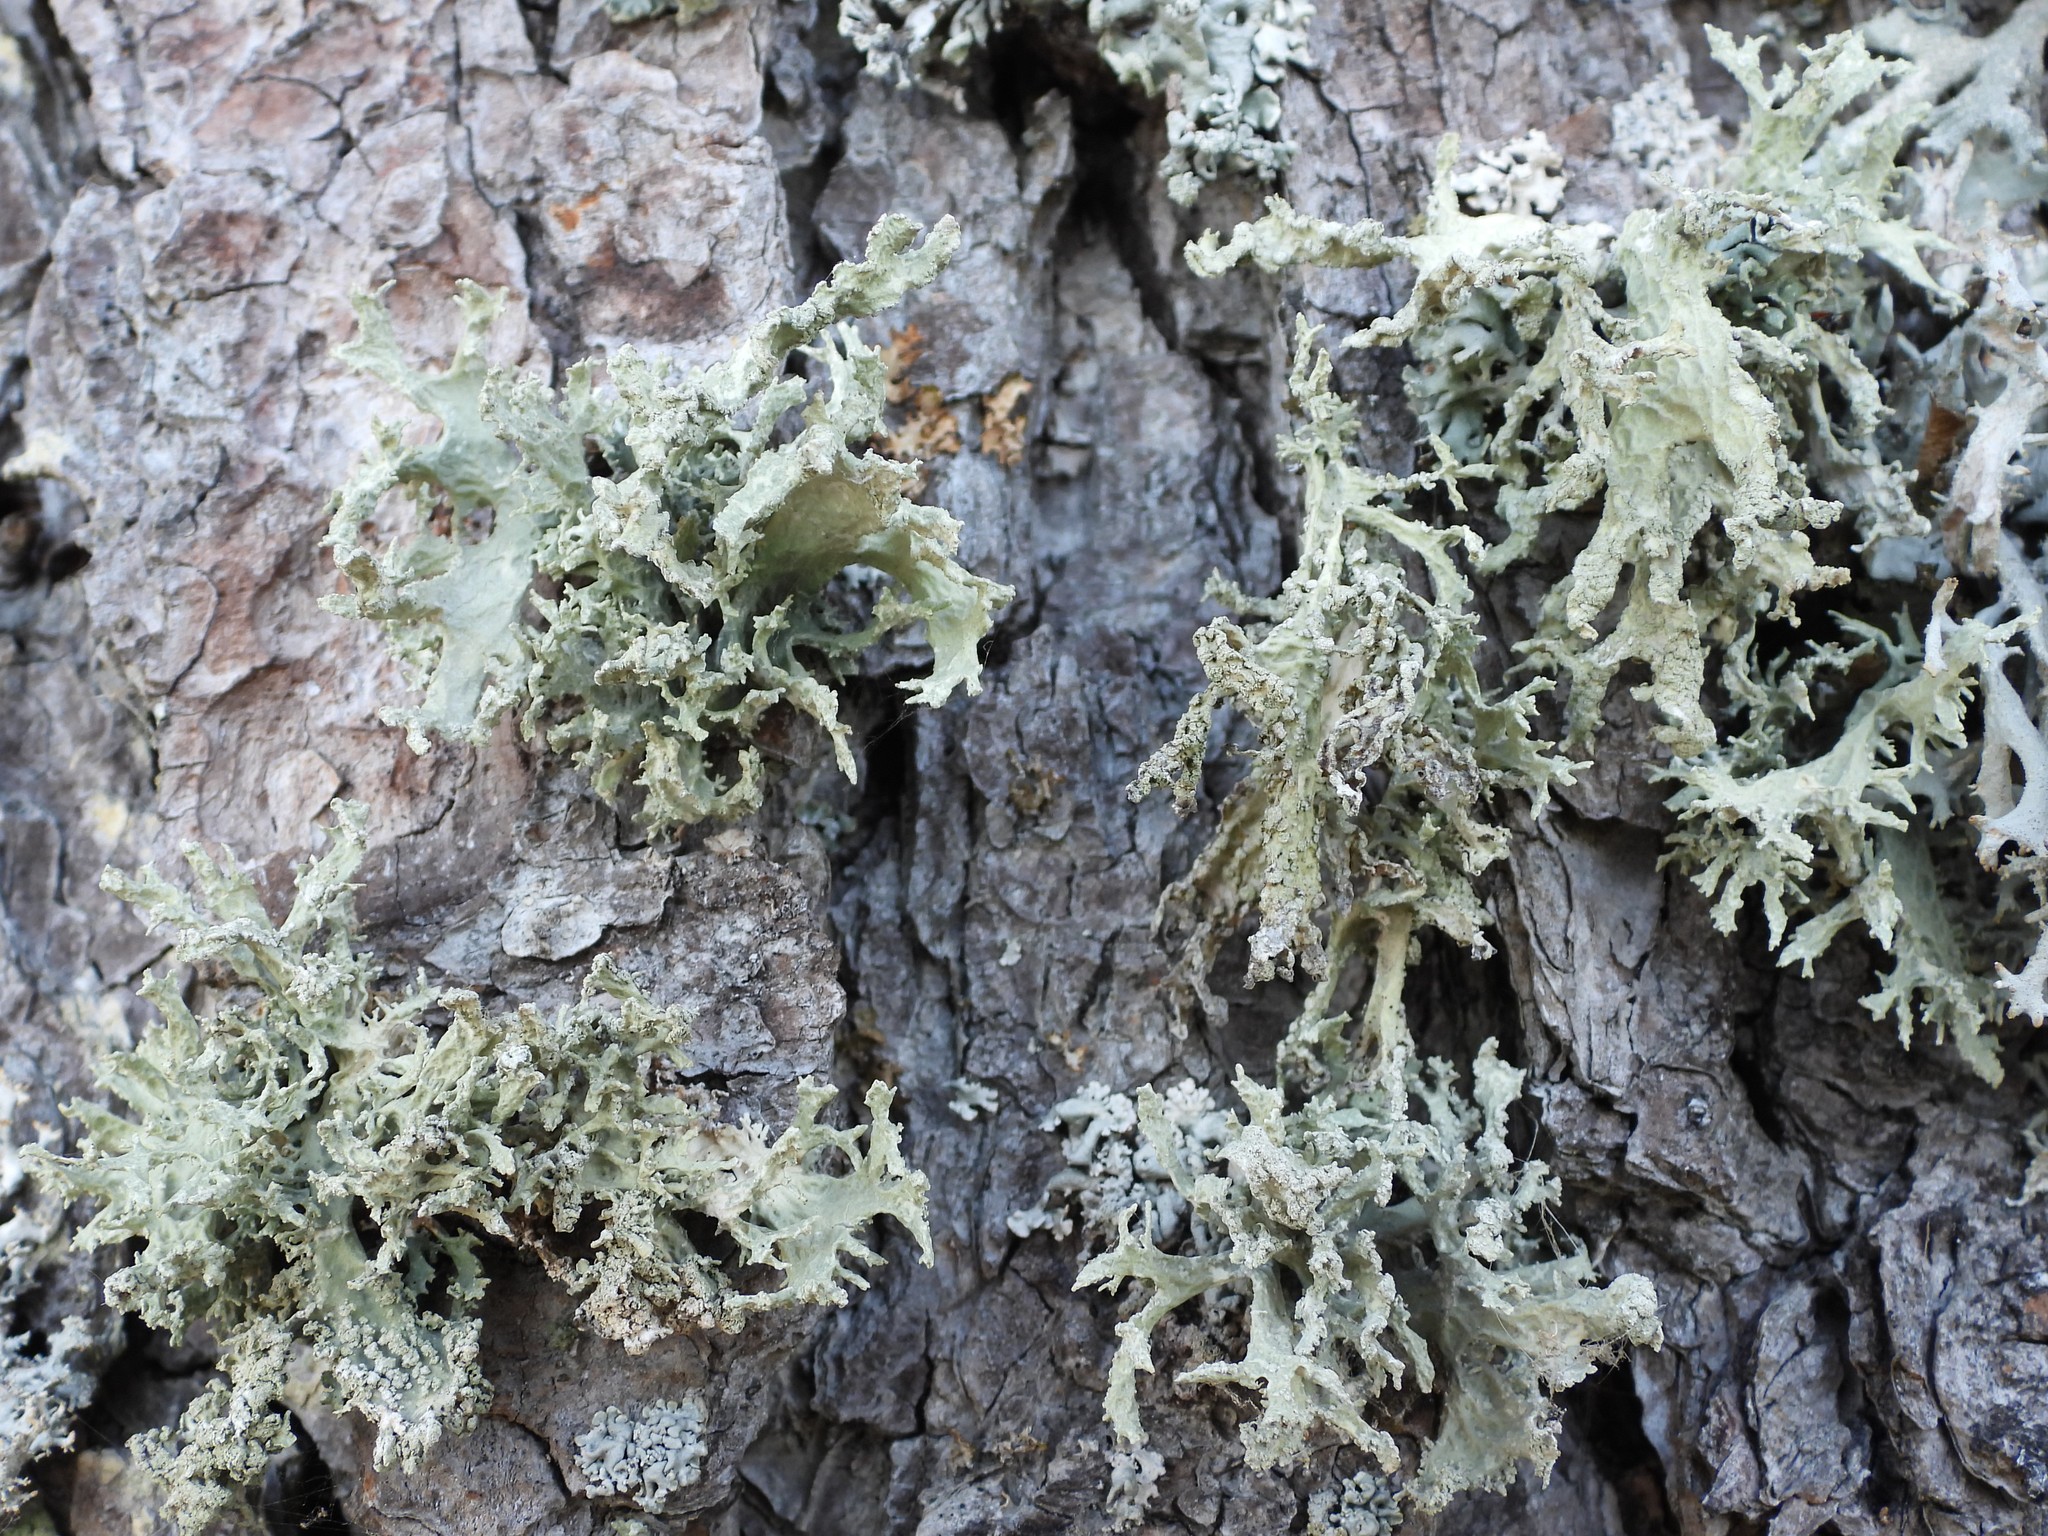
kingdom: Fungi
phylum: Ascomycota
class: Lecanoromycetes
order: Lecanorales
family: Parmeliaceae
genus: Evernia
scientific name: Evernia prunastri
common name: Oak moss
